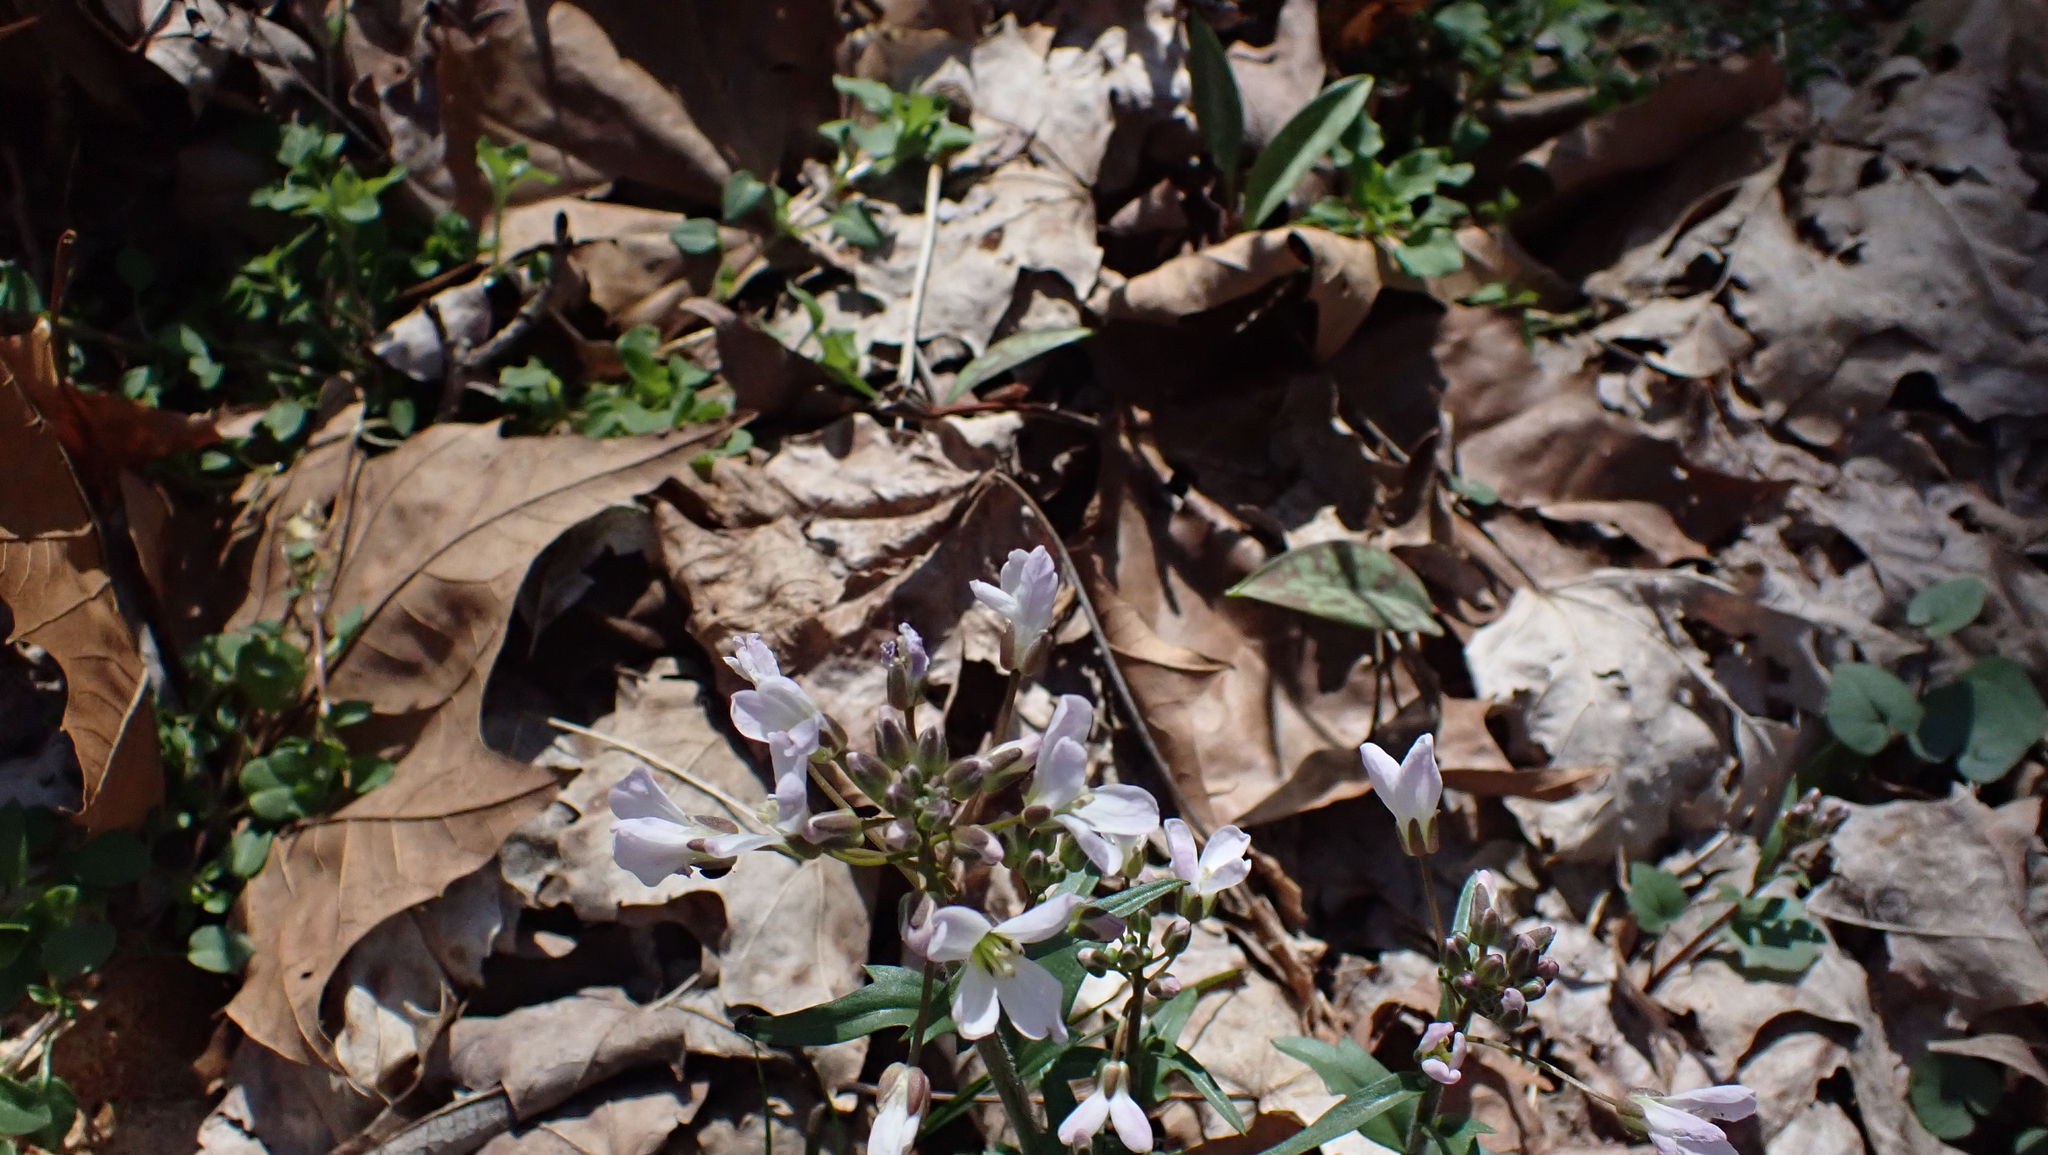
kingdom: Plantae
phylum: Tracheophyta
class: Magnoliopsida
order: Brassicales
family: Brassicaceae
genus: Cardamine
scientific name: Cardamine douglassii
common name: Purple cress
